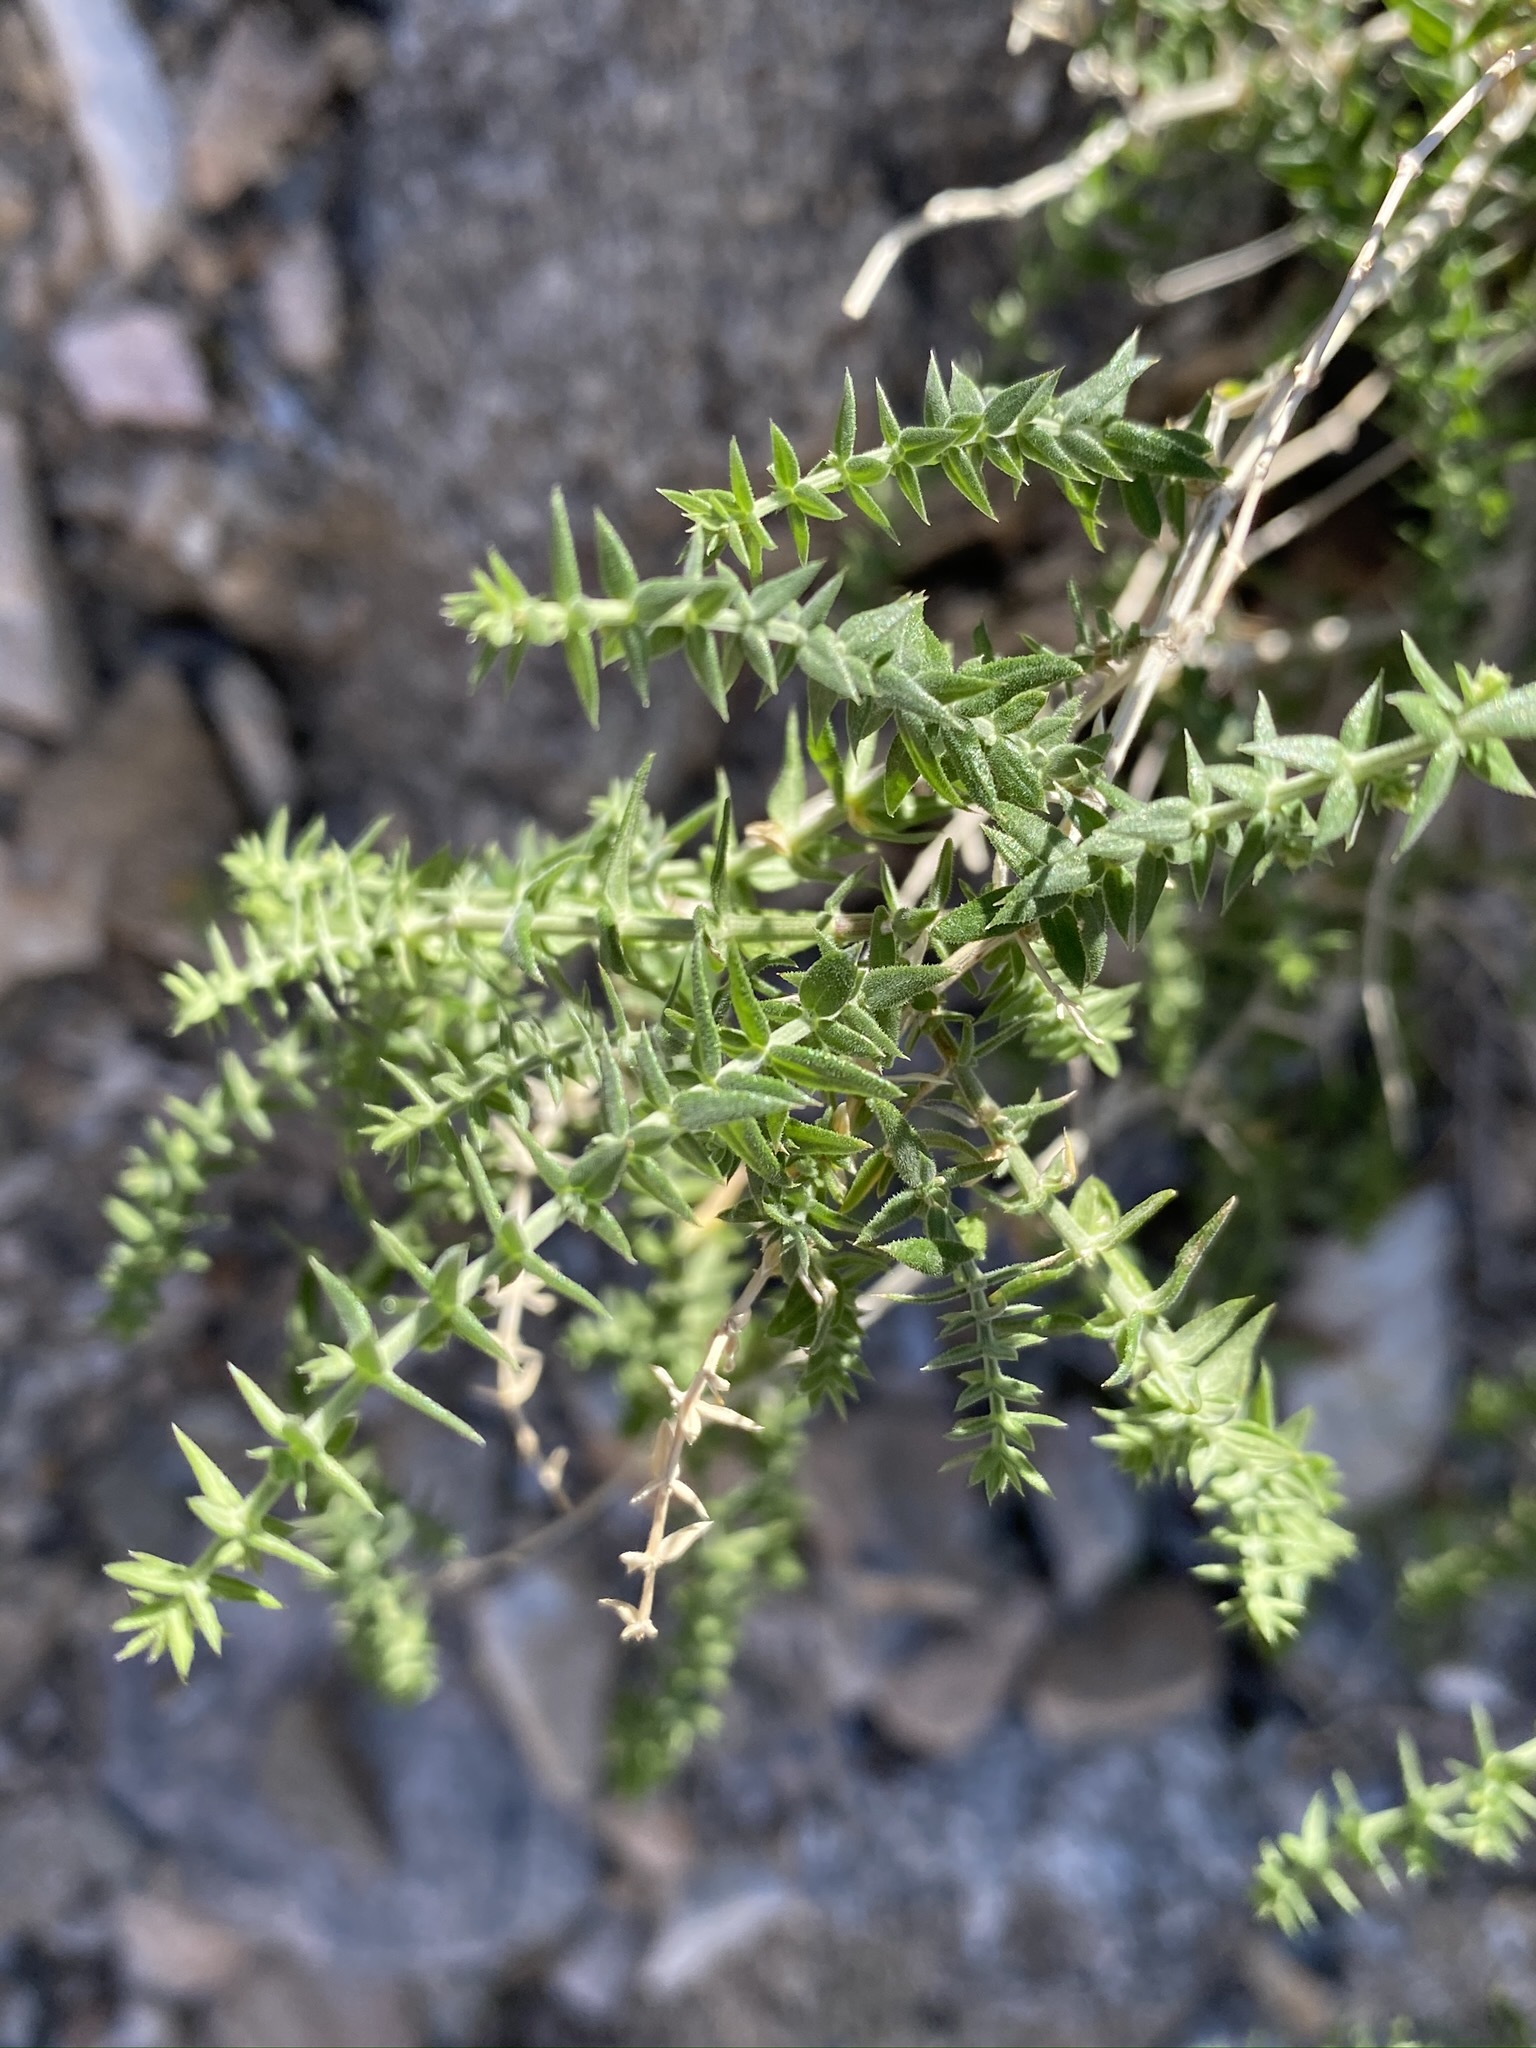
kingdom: Plantae
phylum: Tracheophyta
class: Magnoliopsida
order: Gentianales
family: Rubiaceae
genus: Galium
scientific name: Galium stellatum
